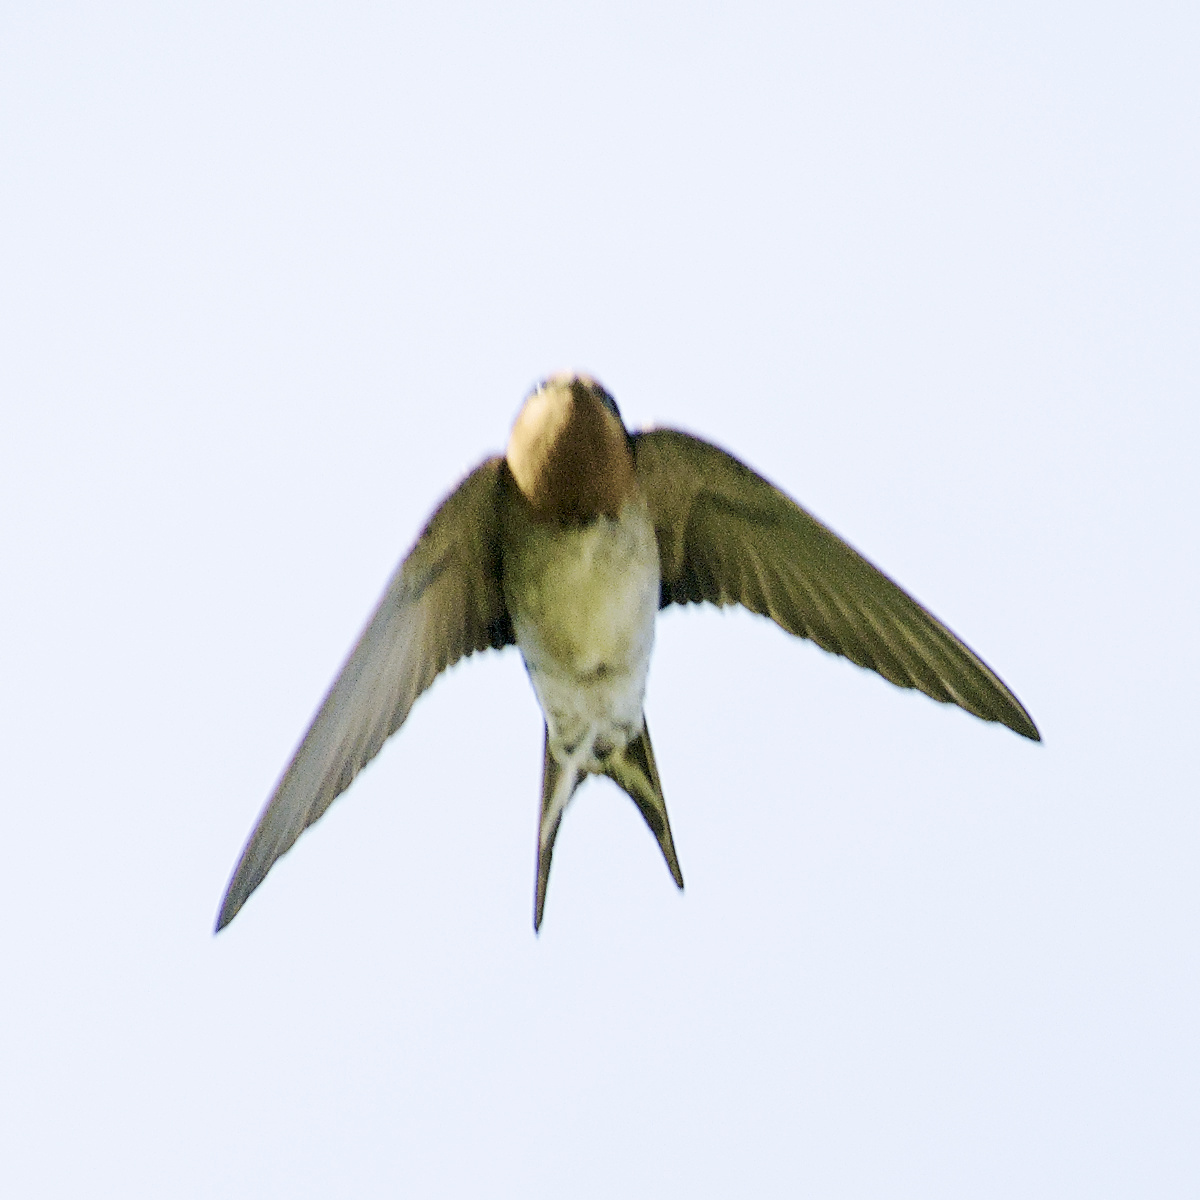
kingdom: Animalia
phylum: Chordata
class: Aves
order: Passeriformes
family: Hirundinidae
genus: Hirundo
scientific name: Hirundo neoxena
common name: Welcome swallow
